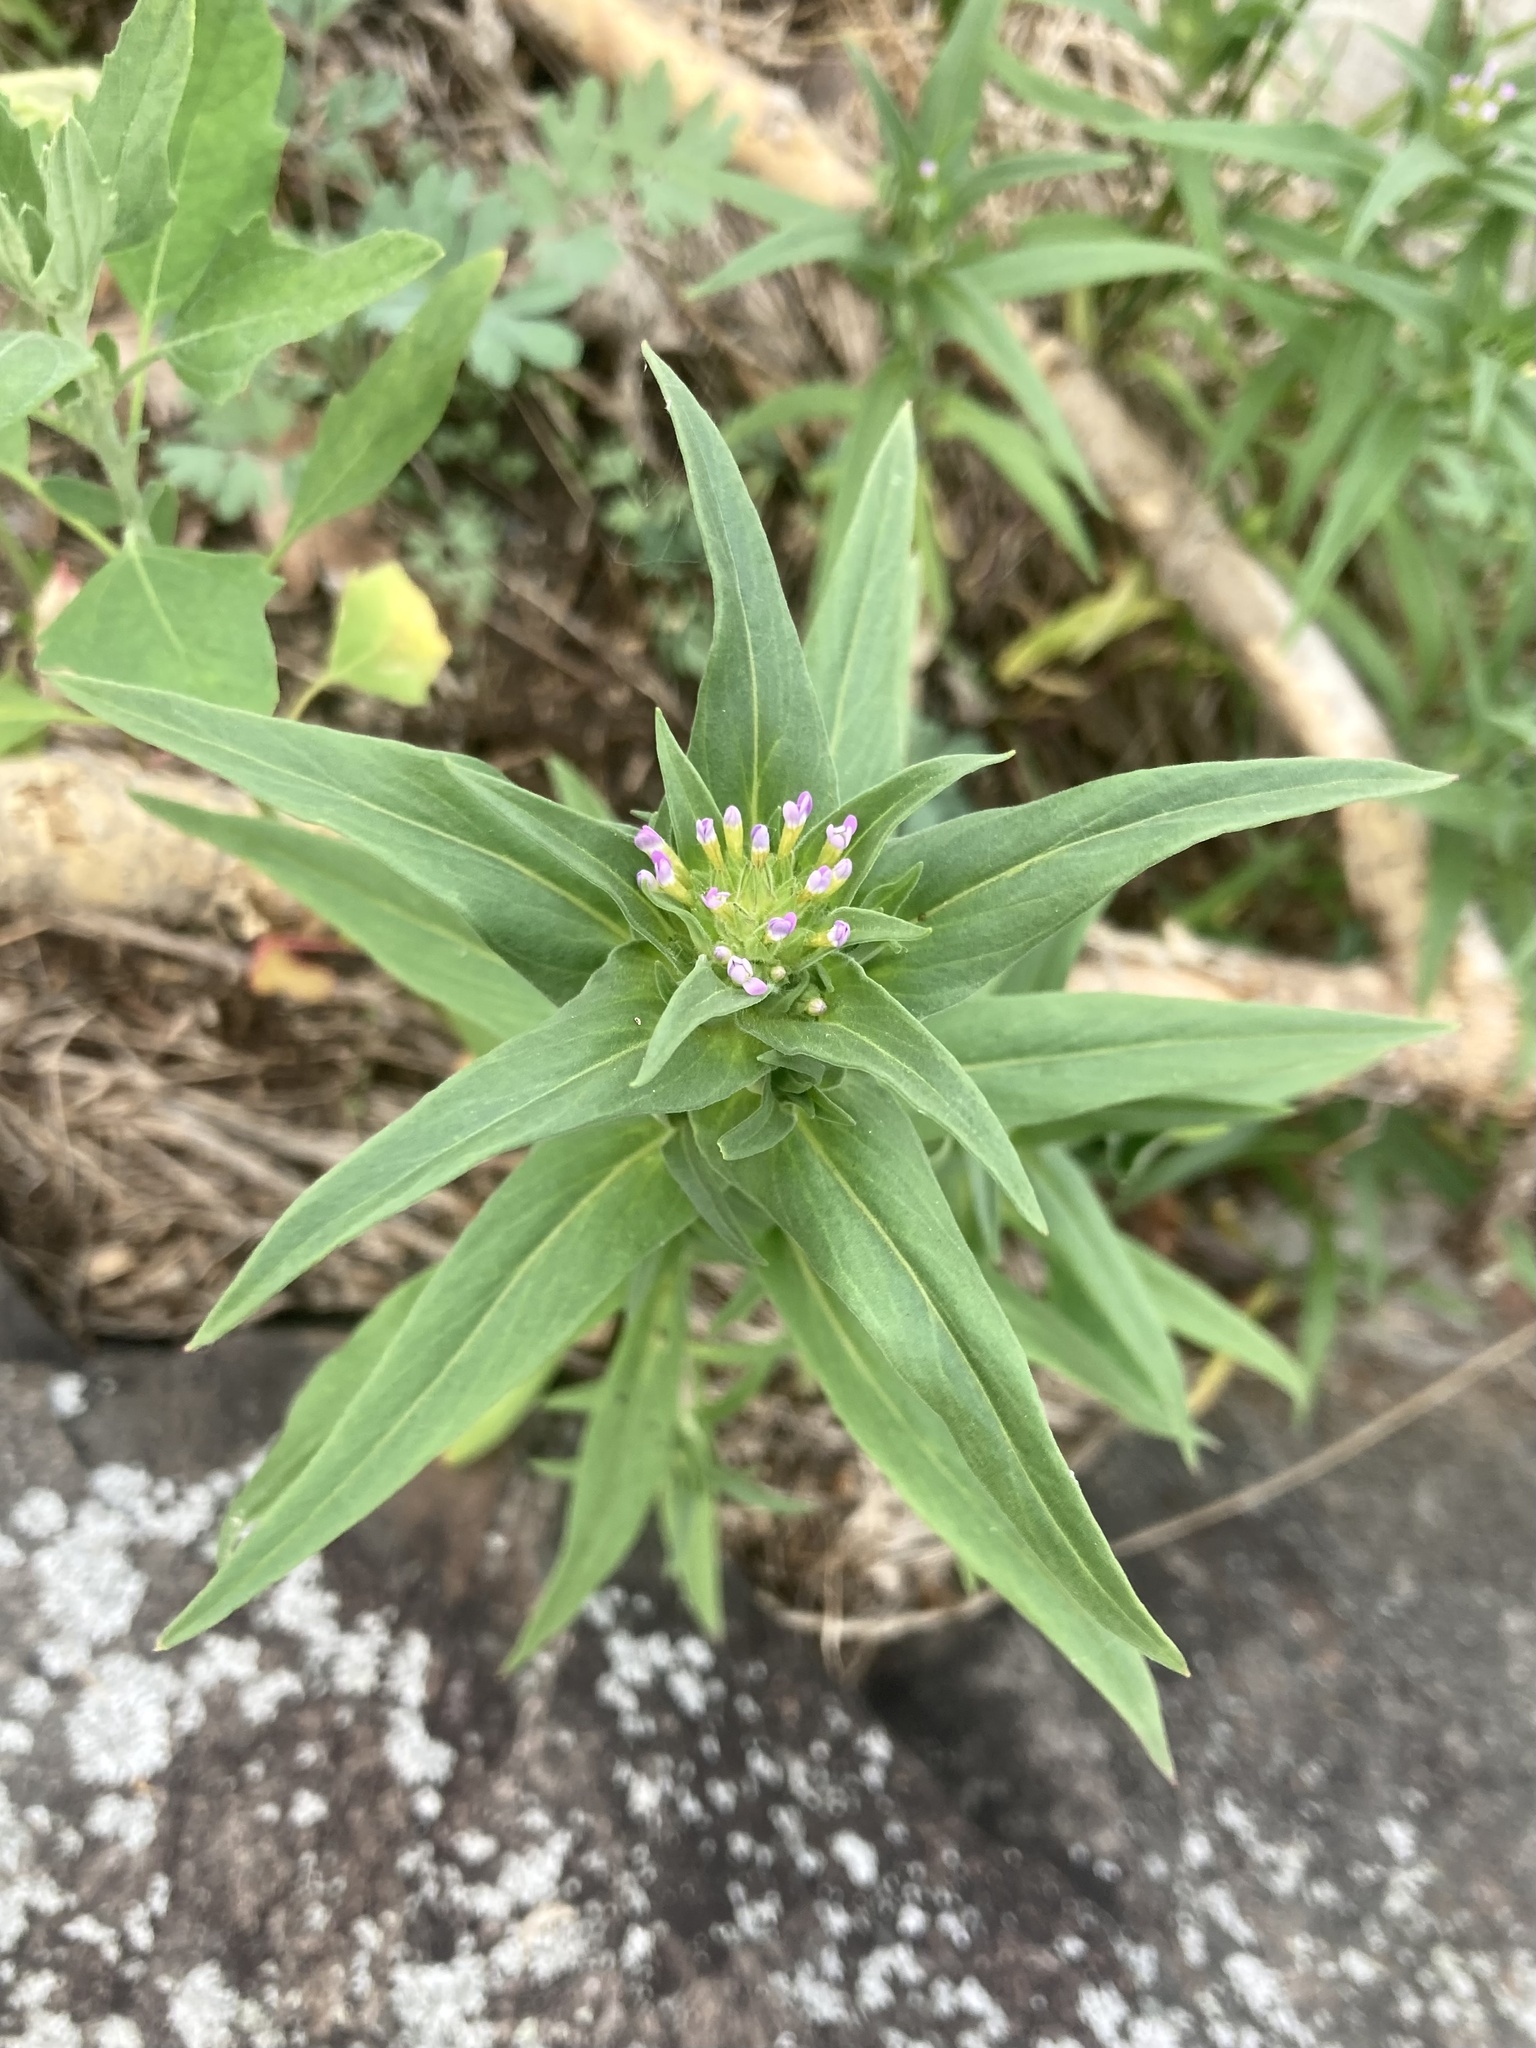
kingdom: Plantae
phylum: Tracheophyta
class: Magnoliopsida
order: Ericales
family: Polemoniaceae
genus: Collomia
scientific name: Collomia linearis
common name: Tiny trumpet
